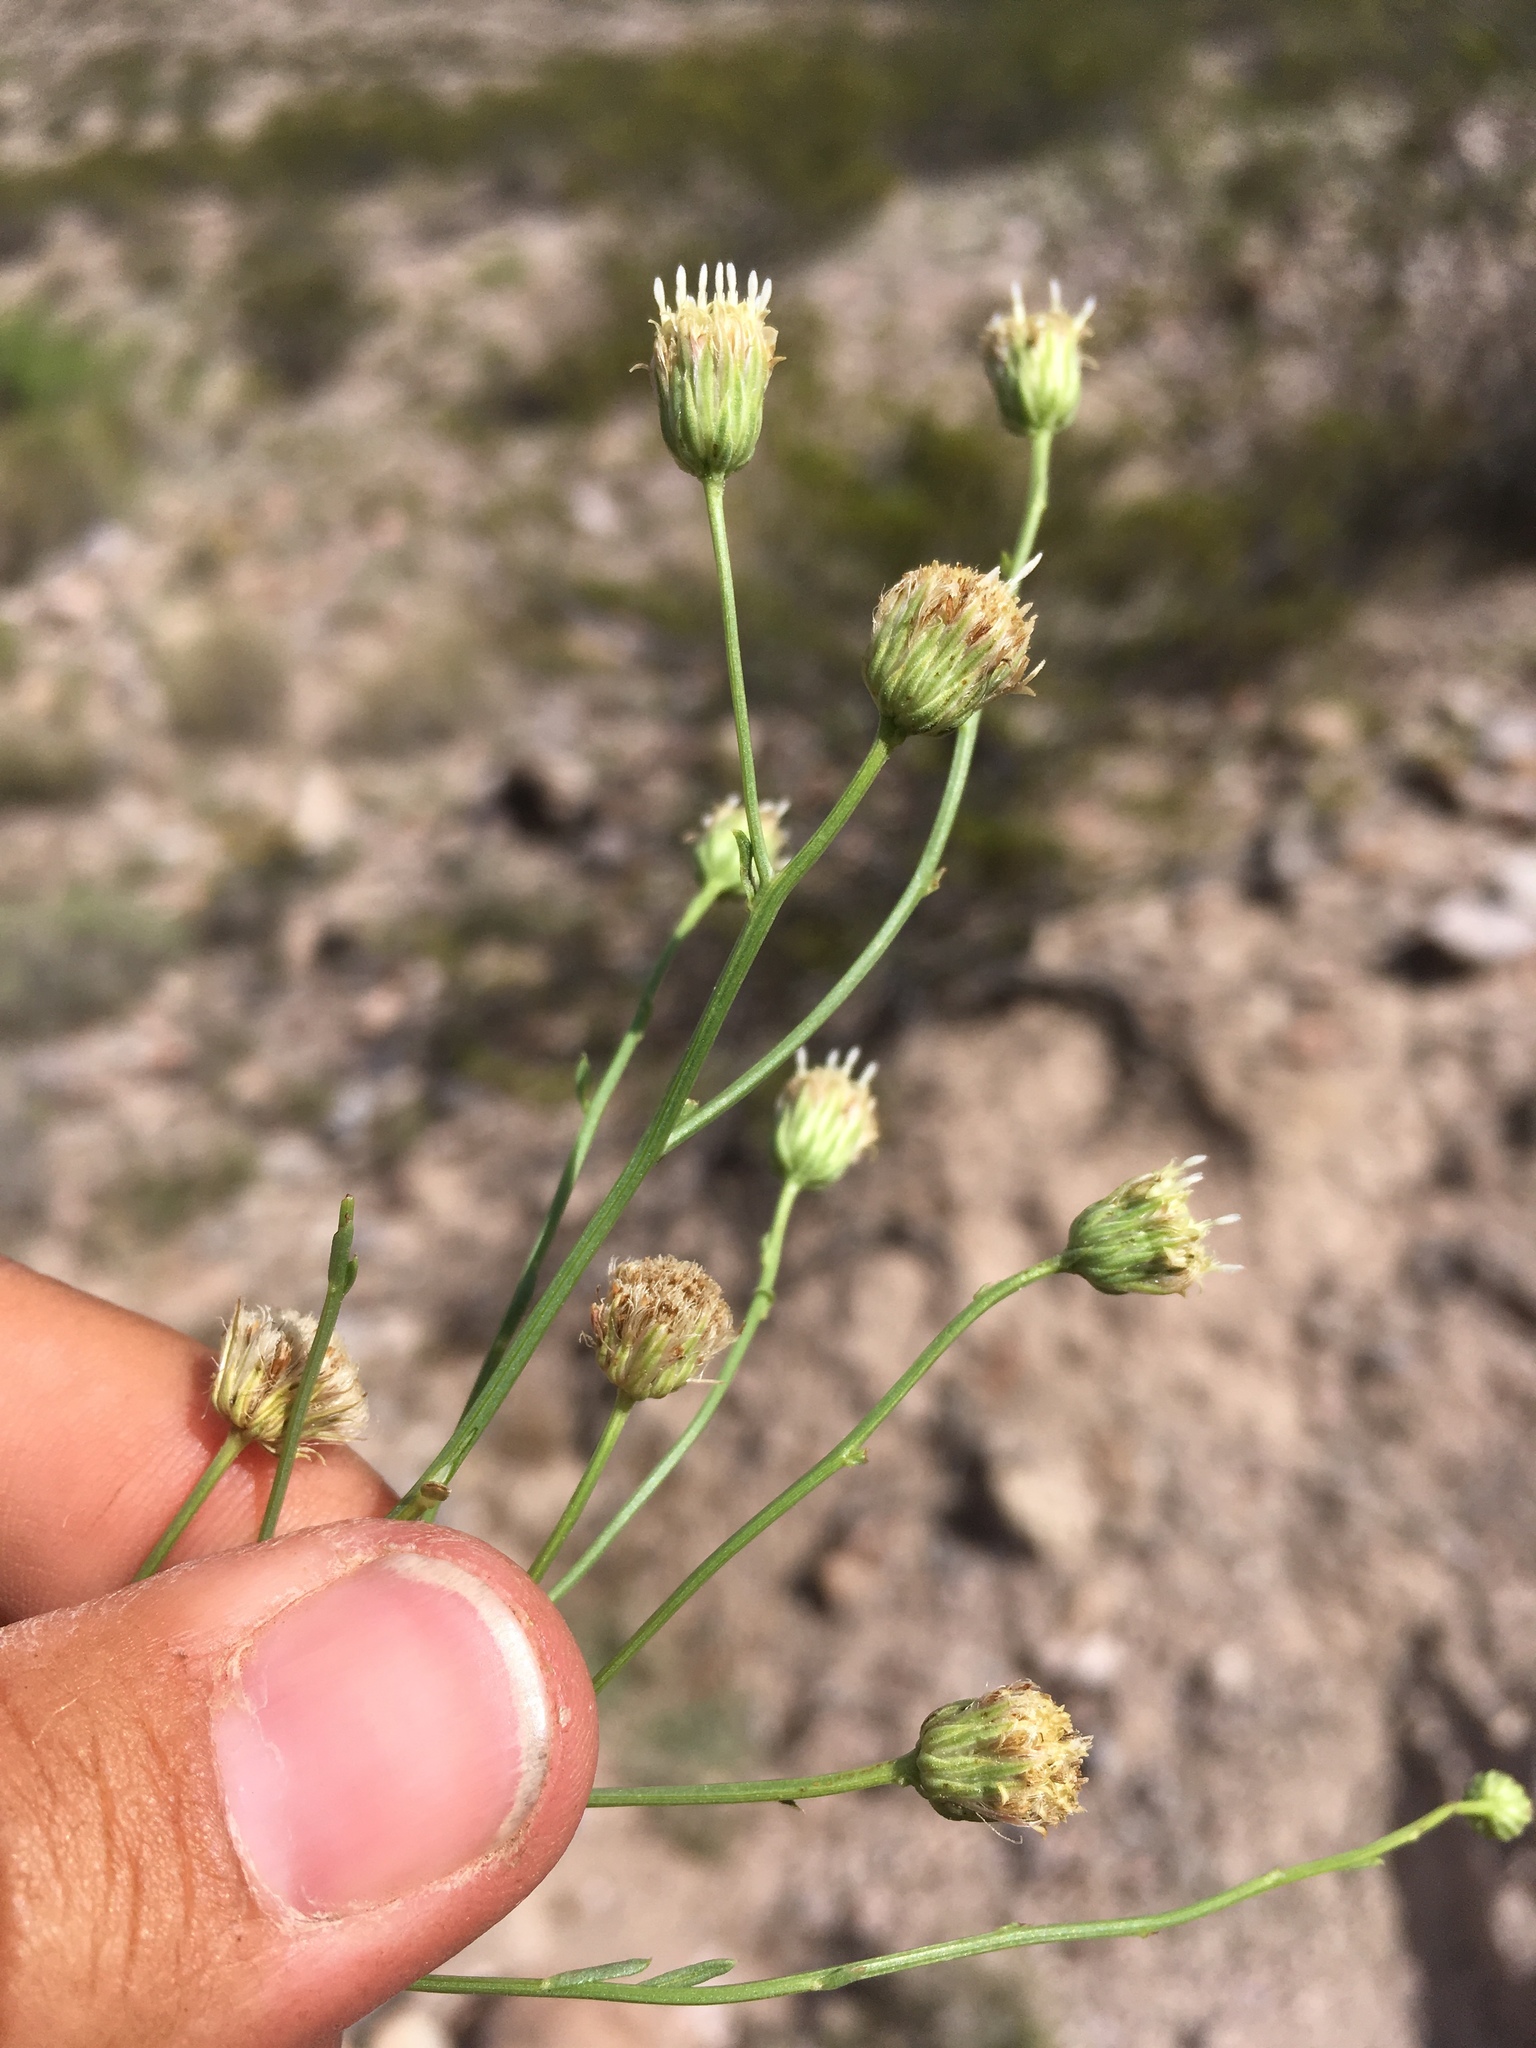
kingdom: Plantae
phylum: Tracheophyta
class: Magnoliopsida
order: Asterales
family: Asteraceae
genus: Baccharis
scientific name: Baccharis wrightii
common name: Wright's baccharis
